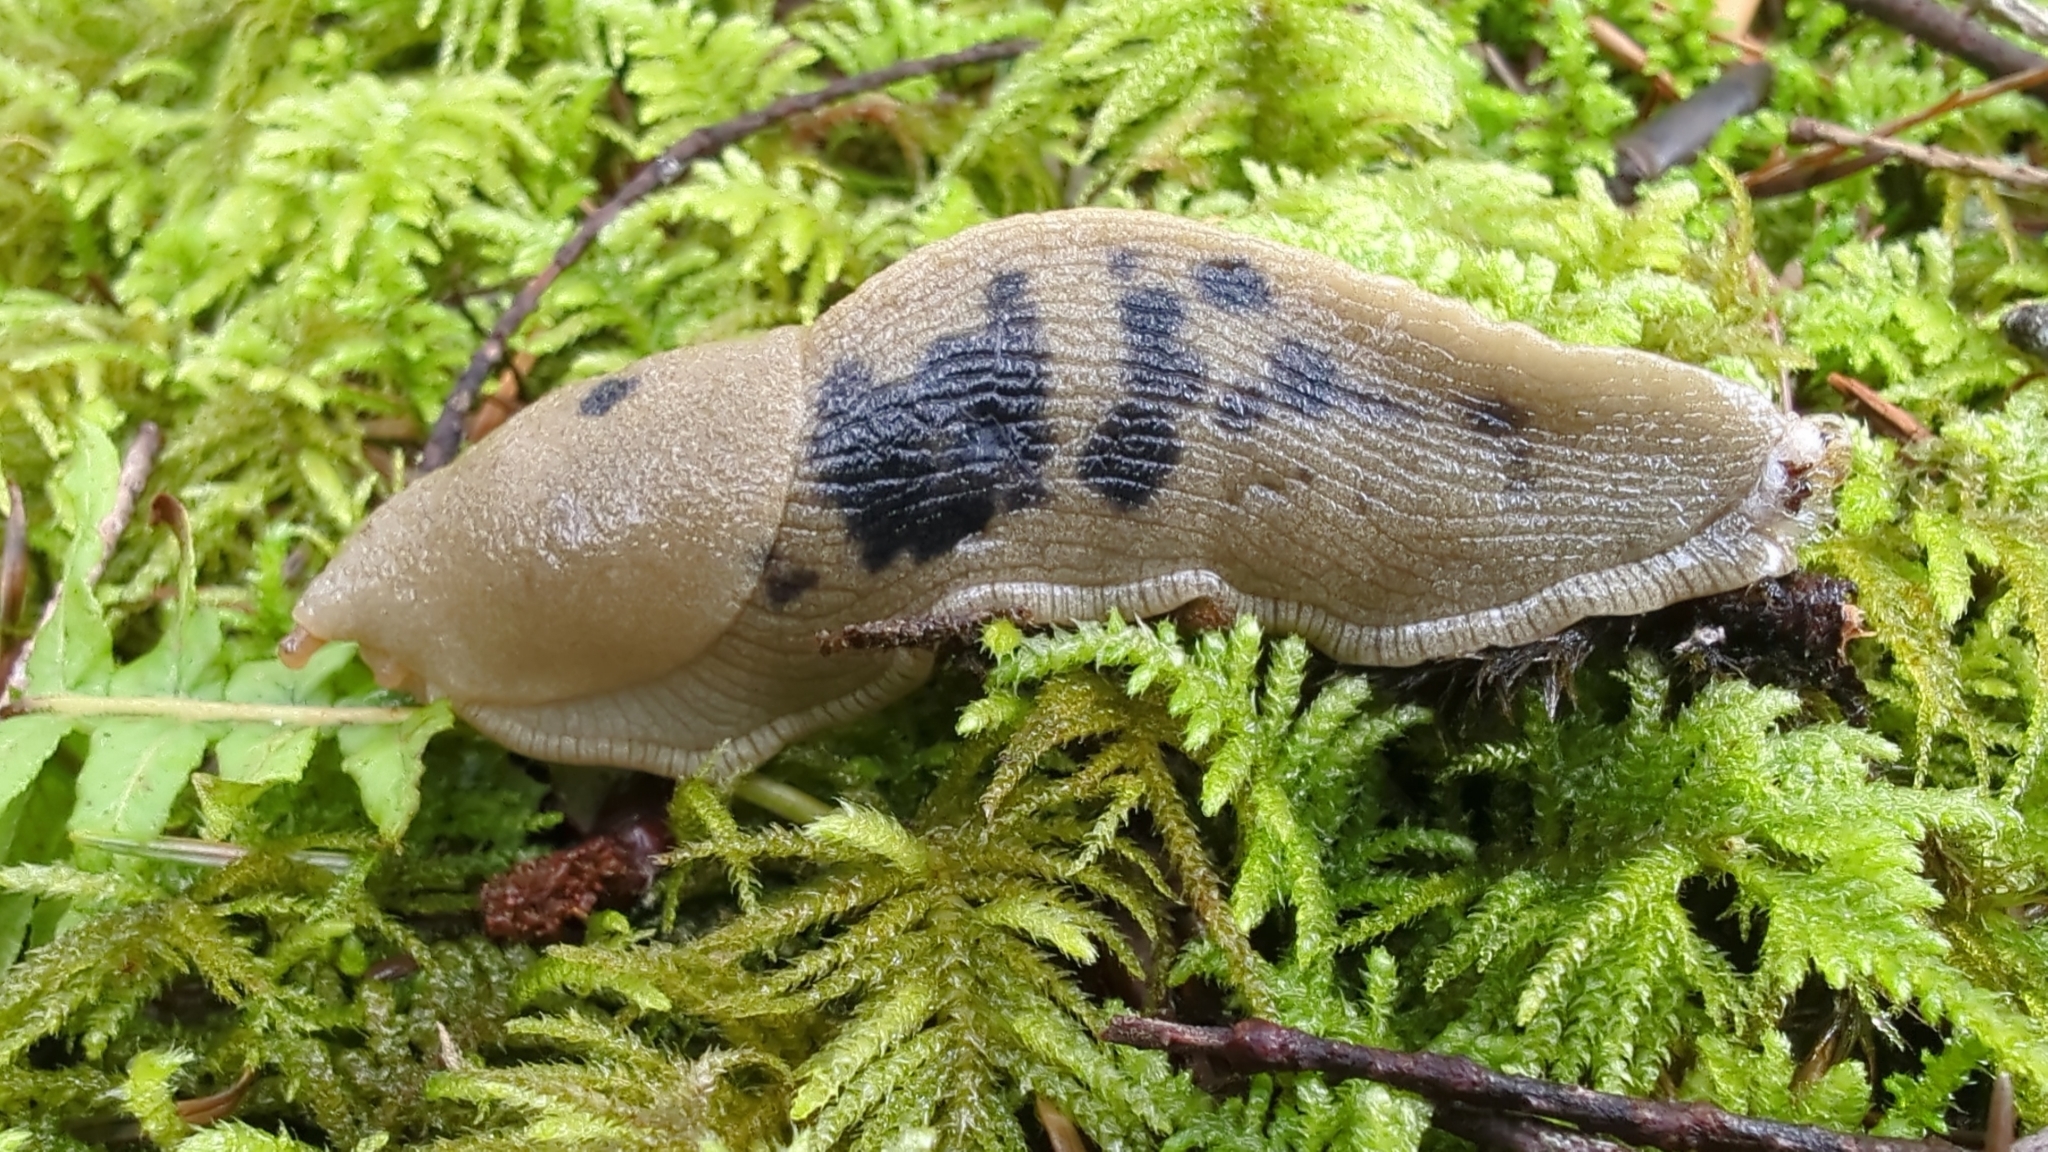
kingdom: Animalia
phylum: Mollusca
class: Gastropoda
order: Stylommatophora
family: Ariolimacidae
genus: Ariolimax
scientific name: Ariolimax columbianus
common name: Pacific banana slug
